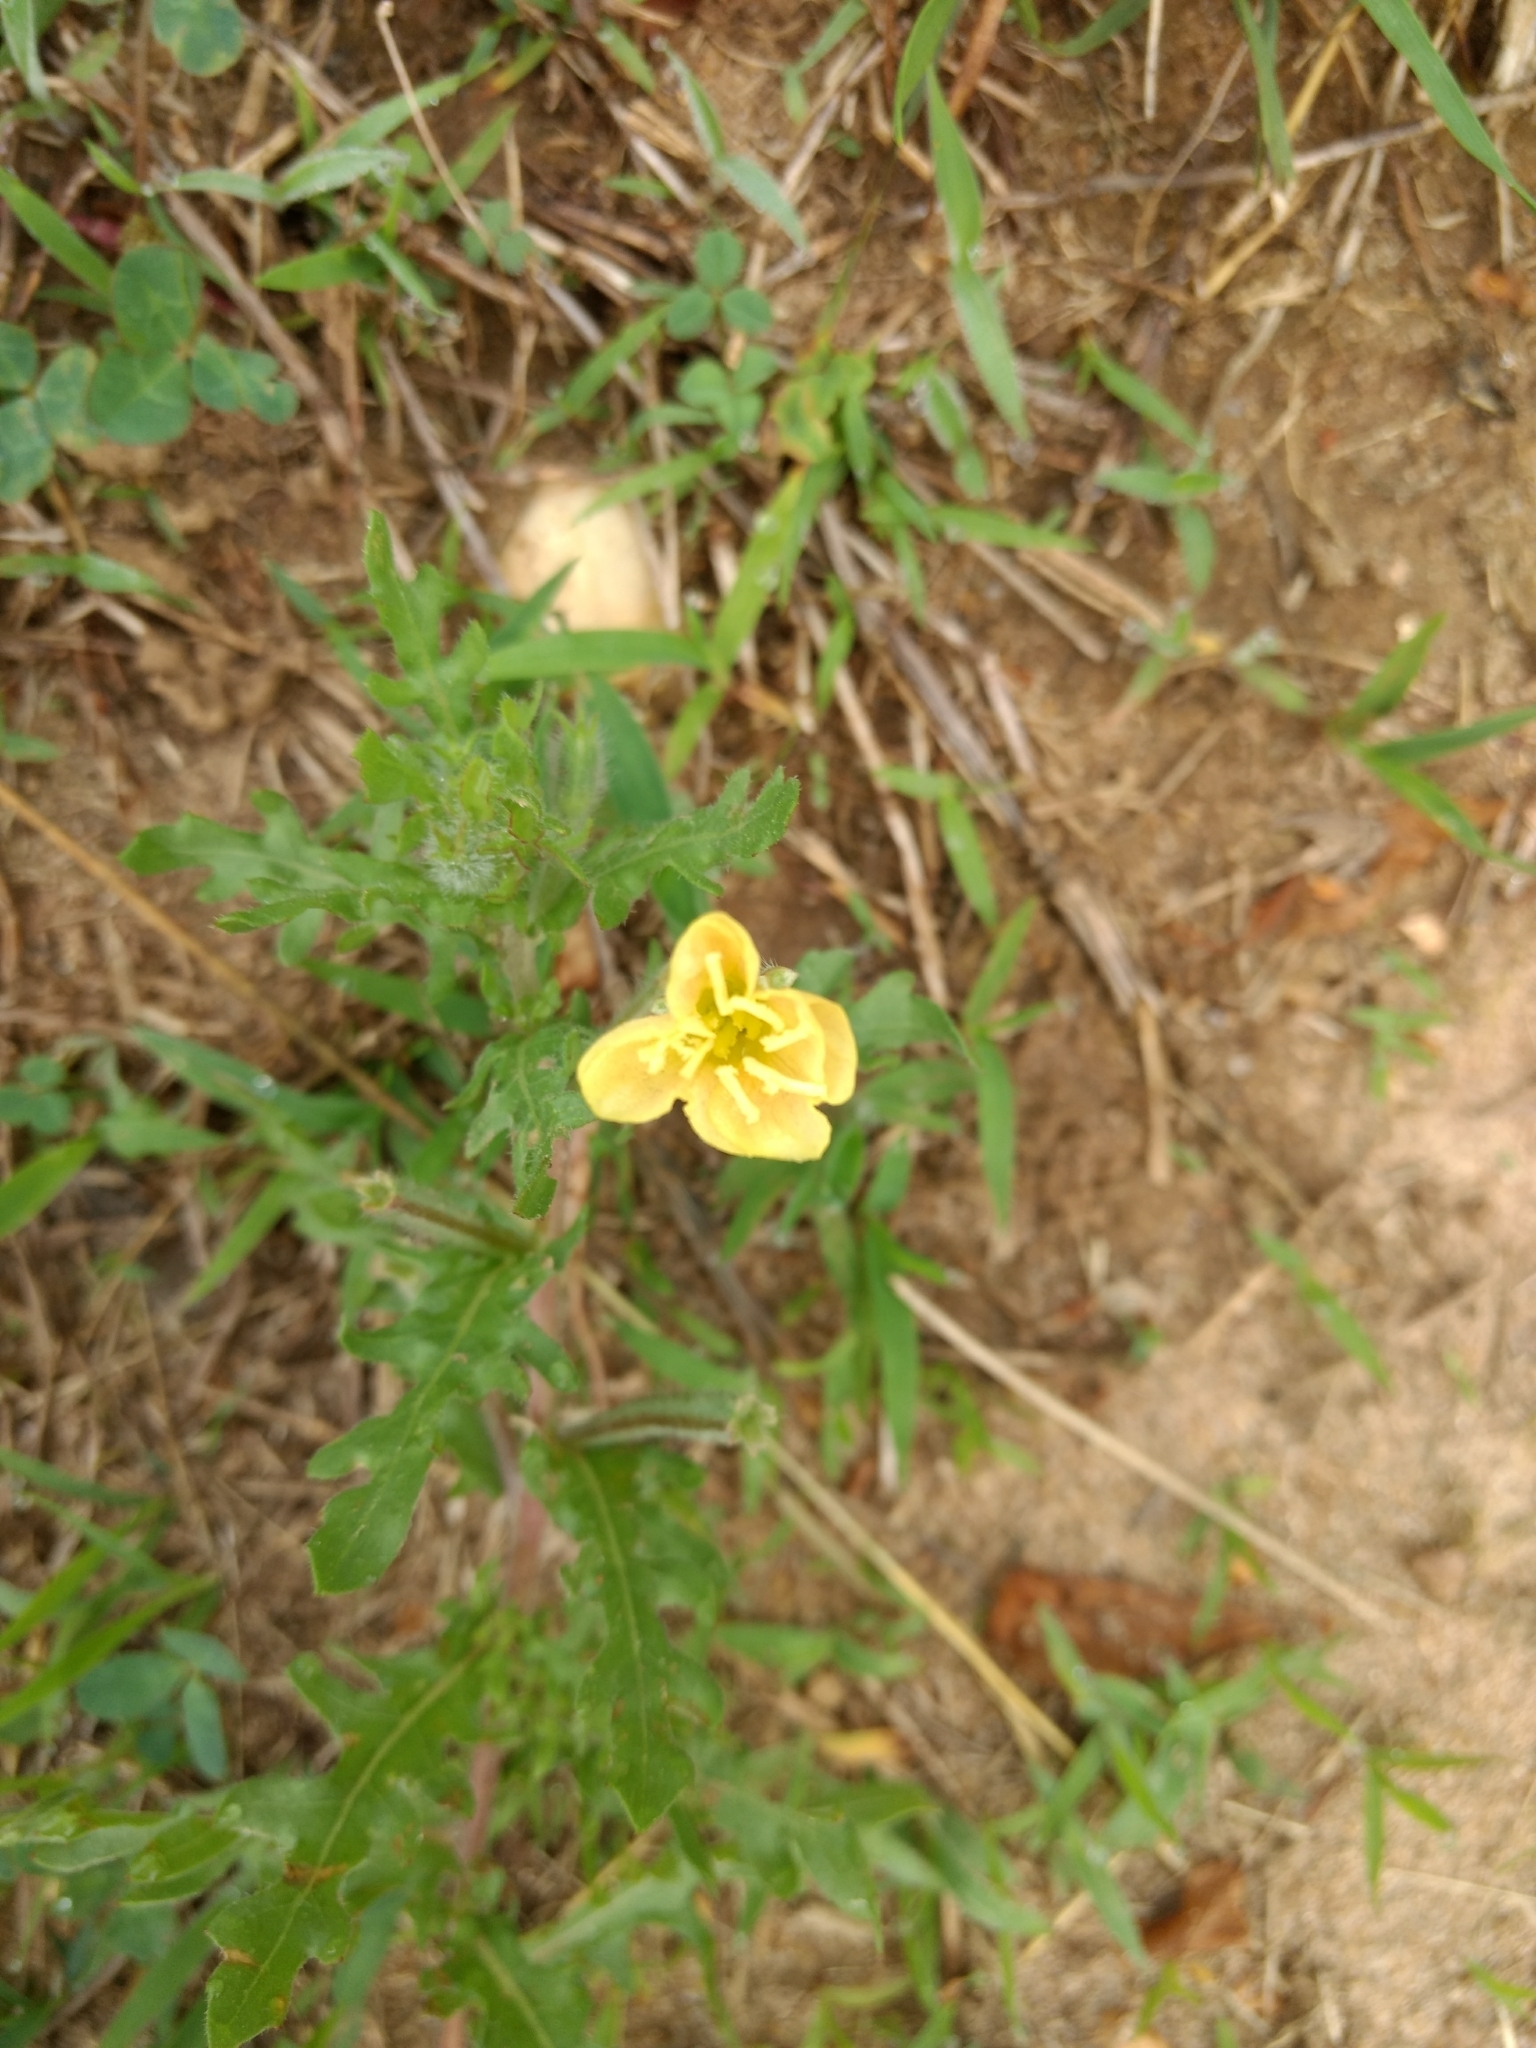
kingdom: Plantae
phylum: Tracheophyta
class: Magnoliopsida
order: Myrtales
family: Onagraceae
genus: Oenothera
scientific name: Oenothera
